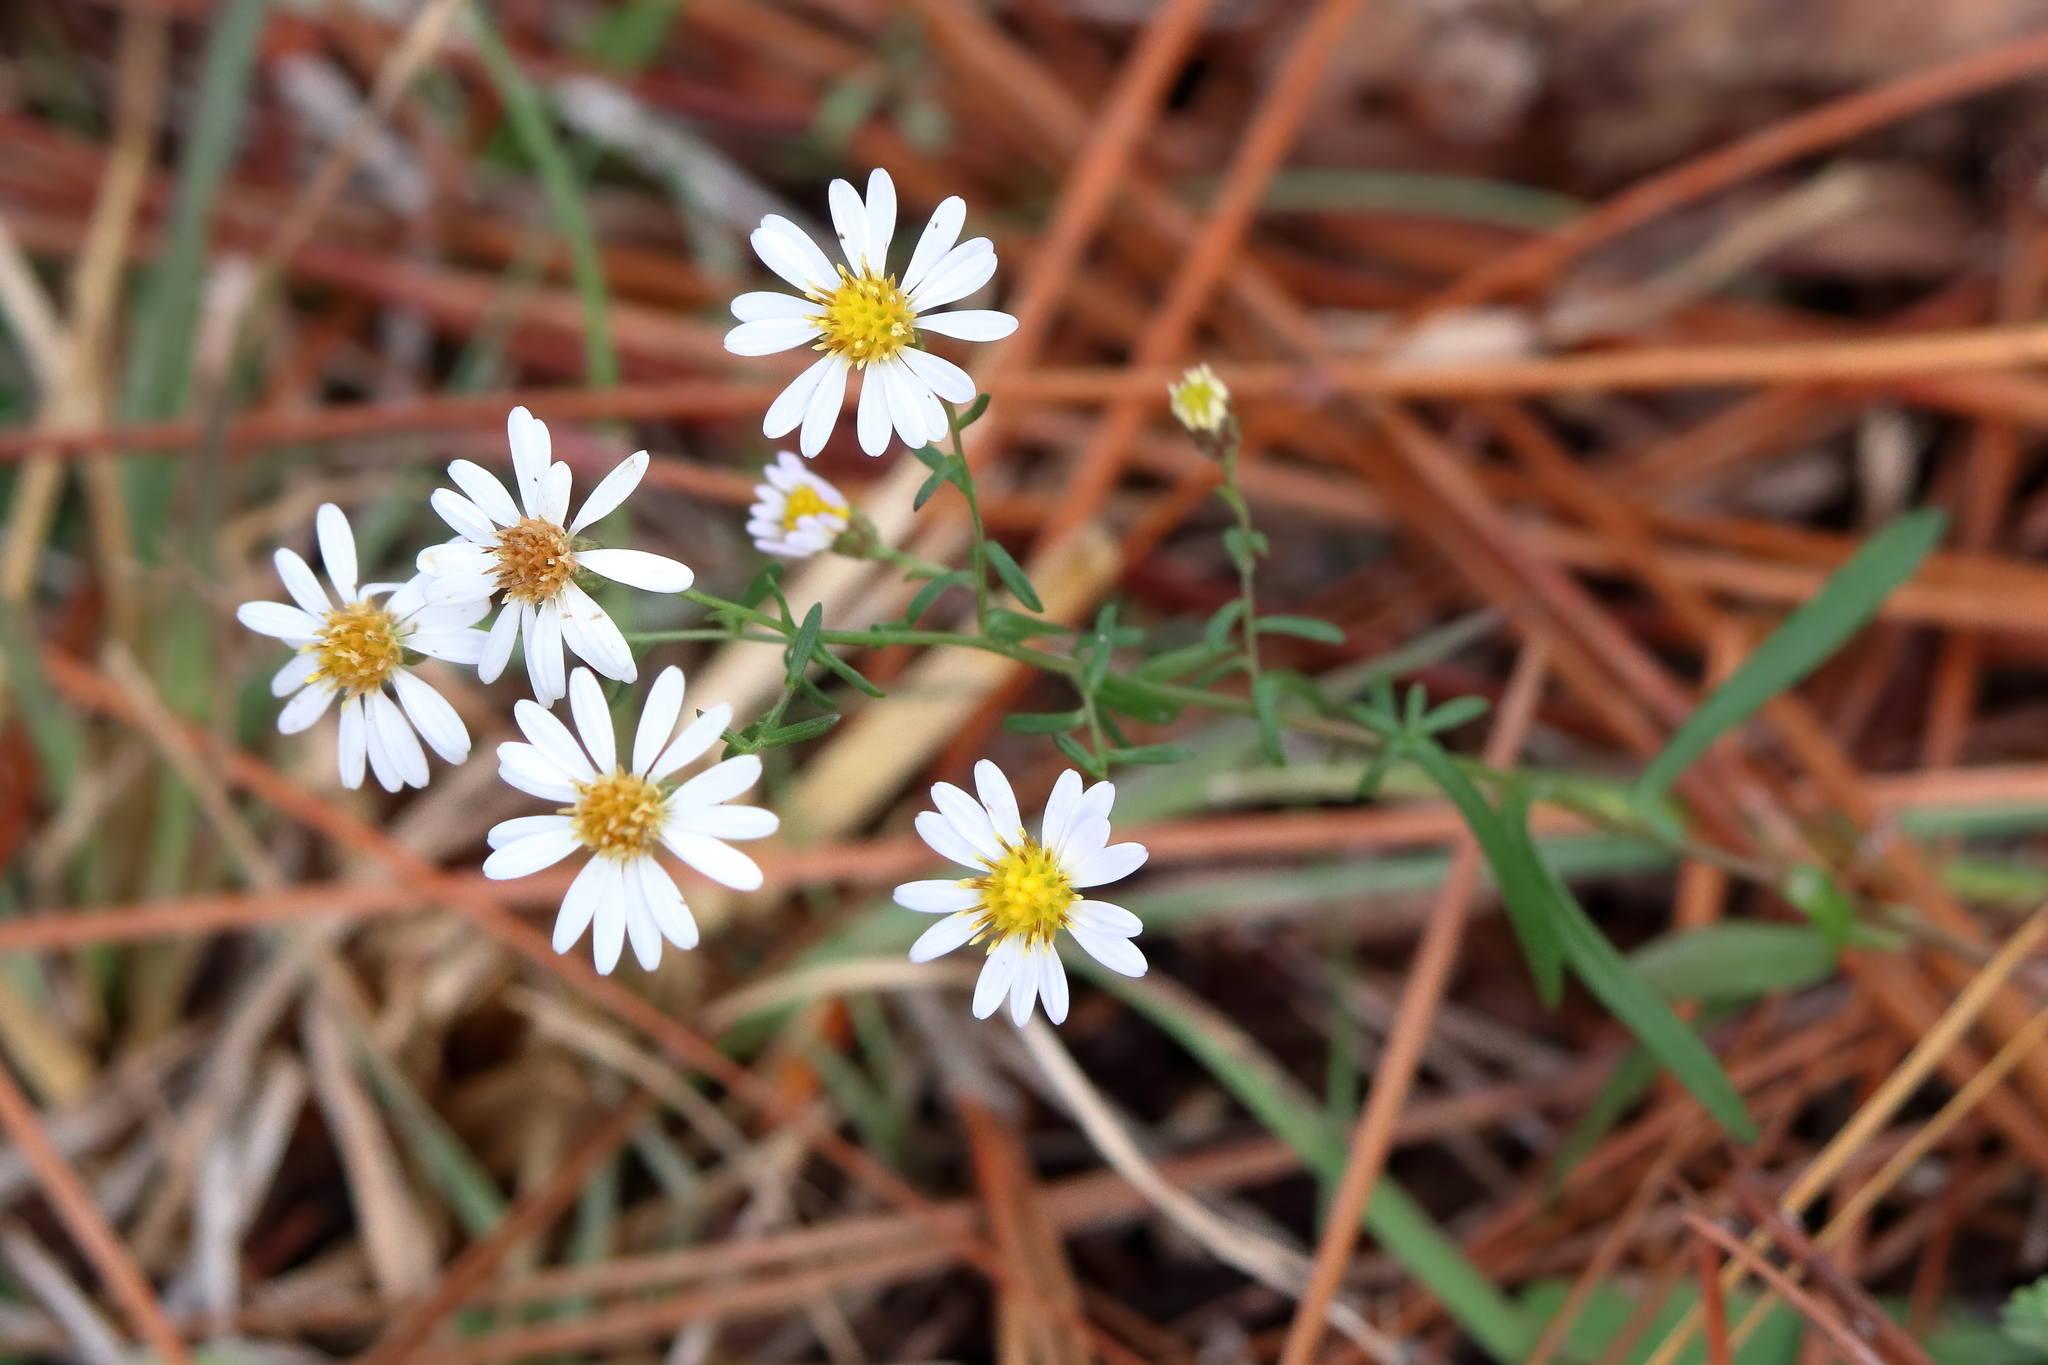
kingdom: Plantae
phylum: Tracheophyta
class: Magnoliopsida
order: Asterales
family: Asteraceae
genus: Symphyotrichum
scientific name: Symphyotrichum dumosum
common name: Bushy aster
